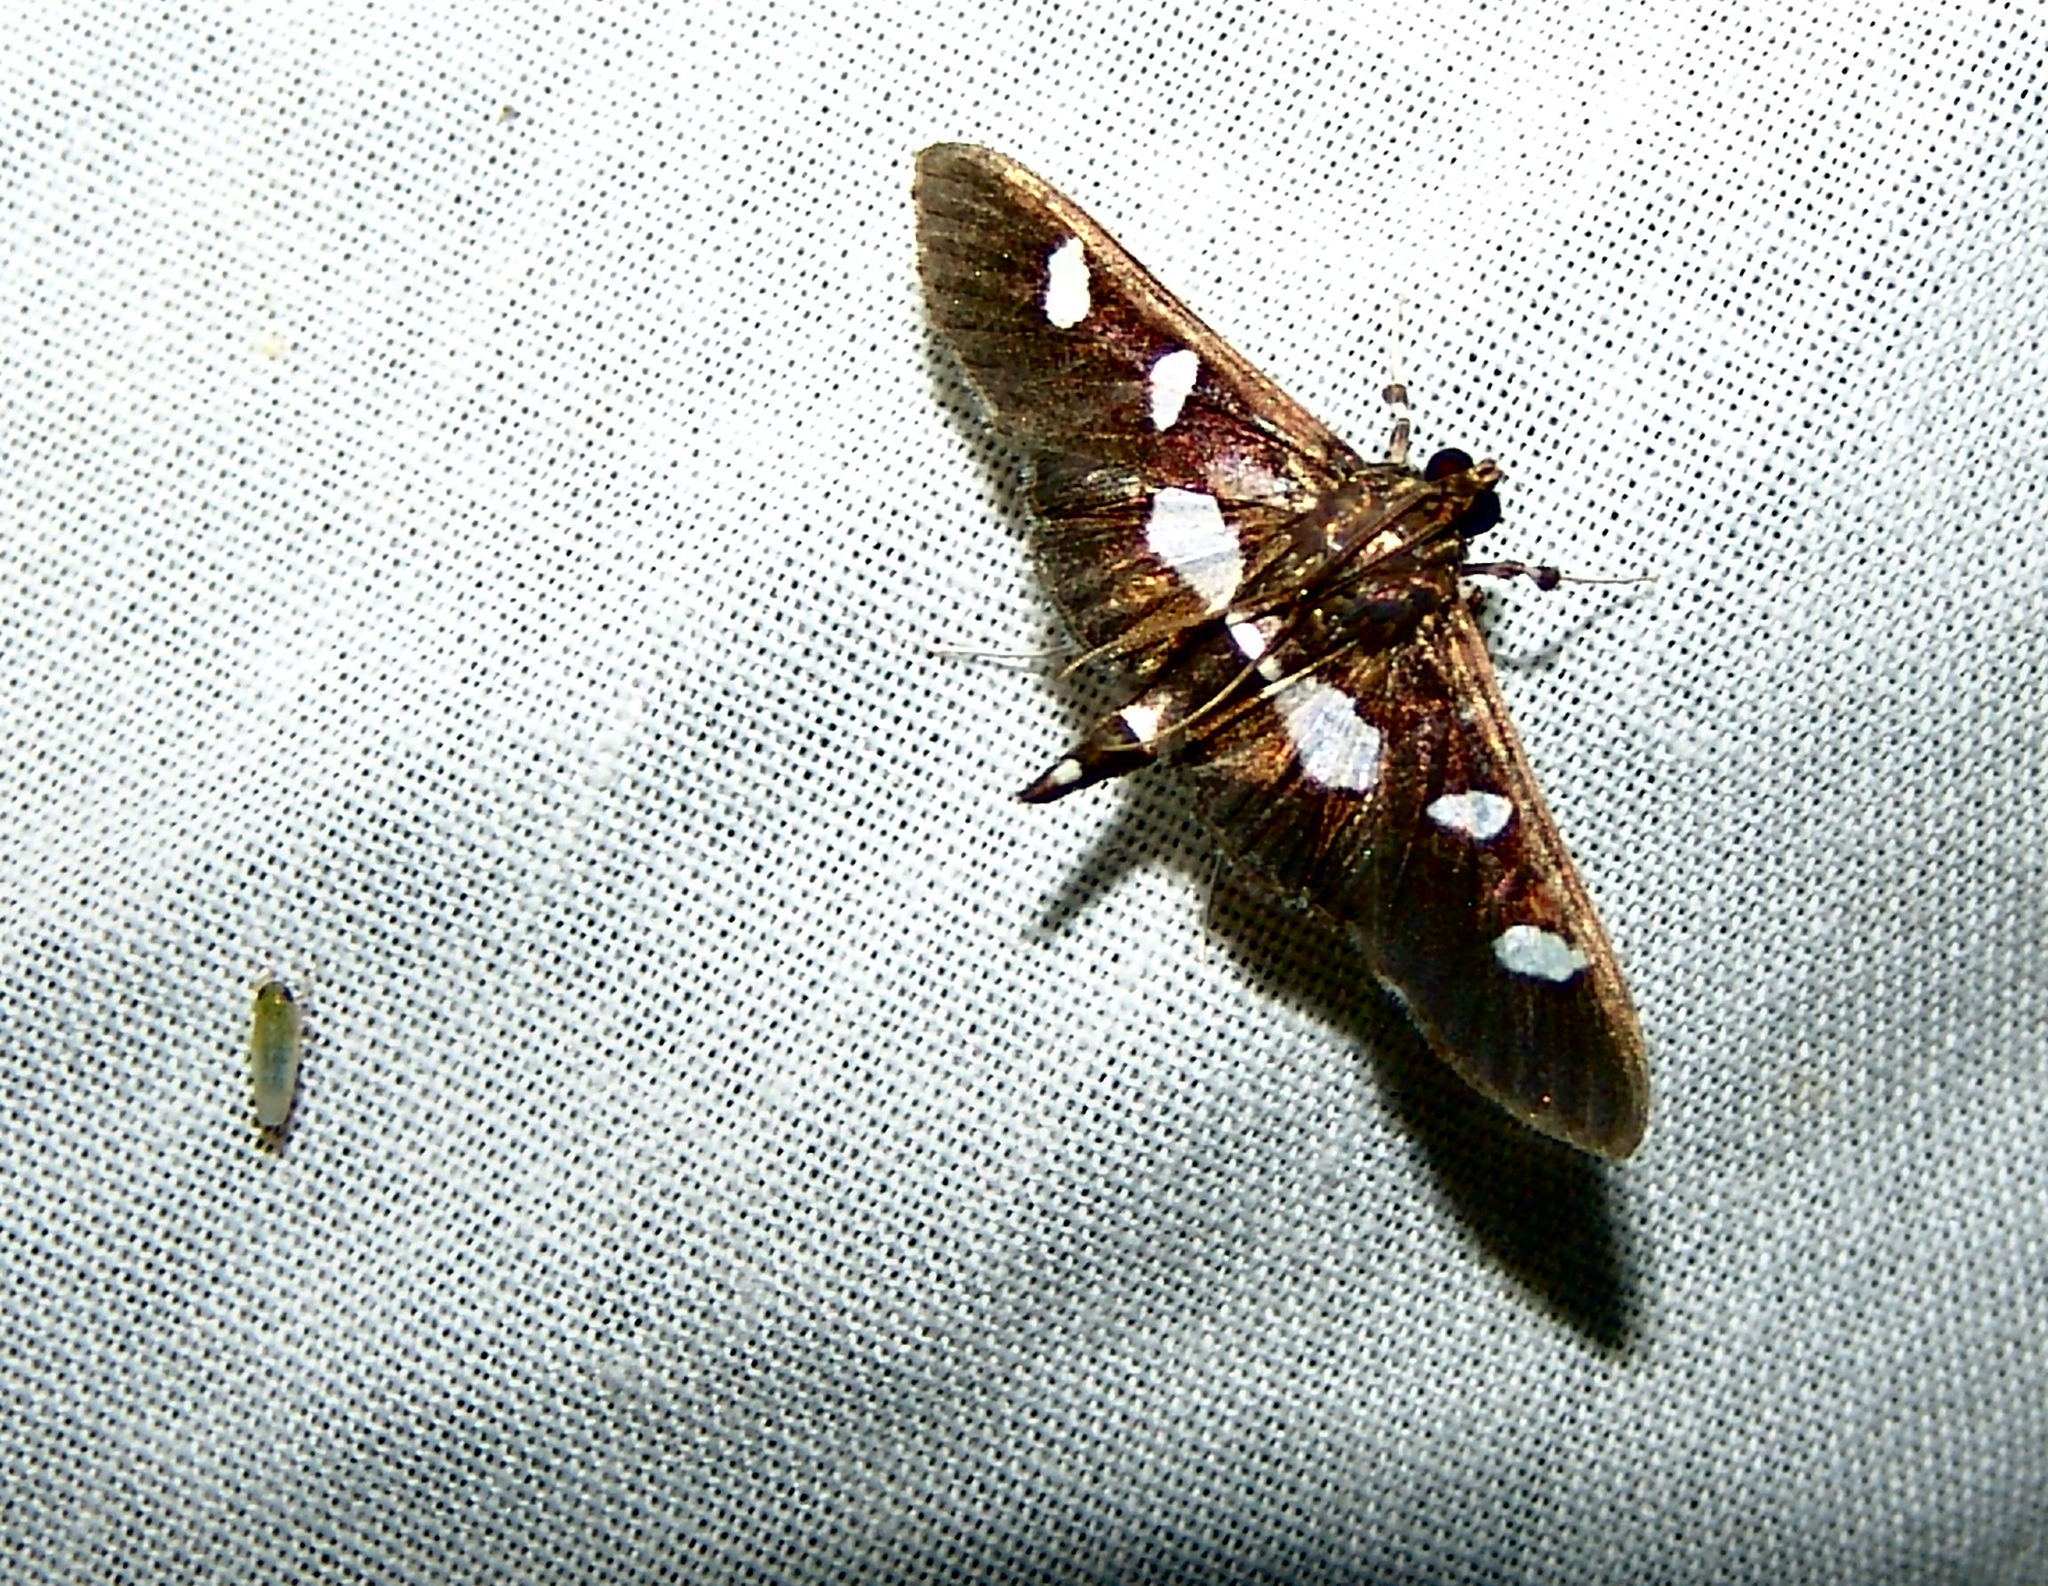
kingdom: Animalia
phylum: Arthropoda
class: Insecta
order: Lepidoptera
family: Crambidae
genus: Desmia
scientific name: Desmia
